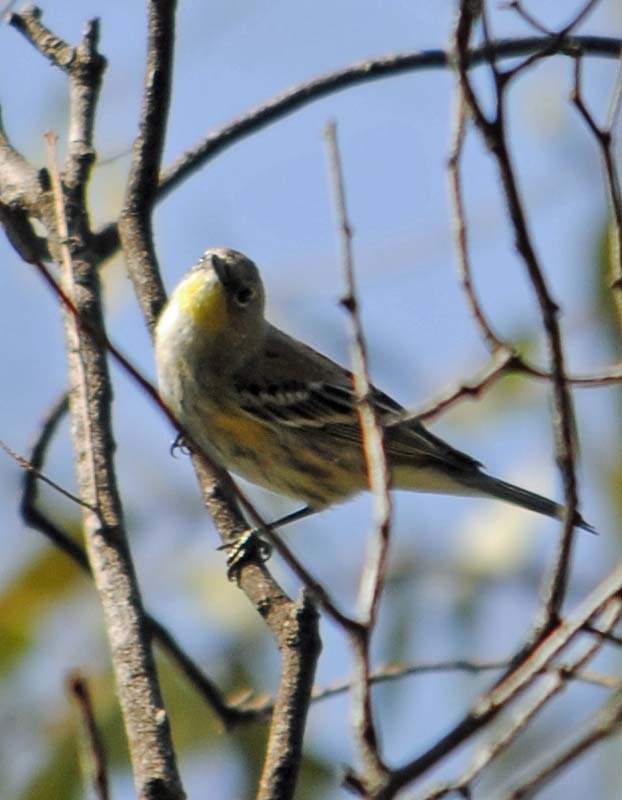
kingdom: Animalia
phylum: Chordata
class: Aves
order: Passeriformes
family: Parulidae
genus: Setophaga
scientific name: Setophaga coronata
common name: Myrtle warbler
